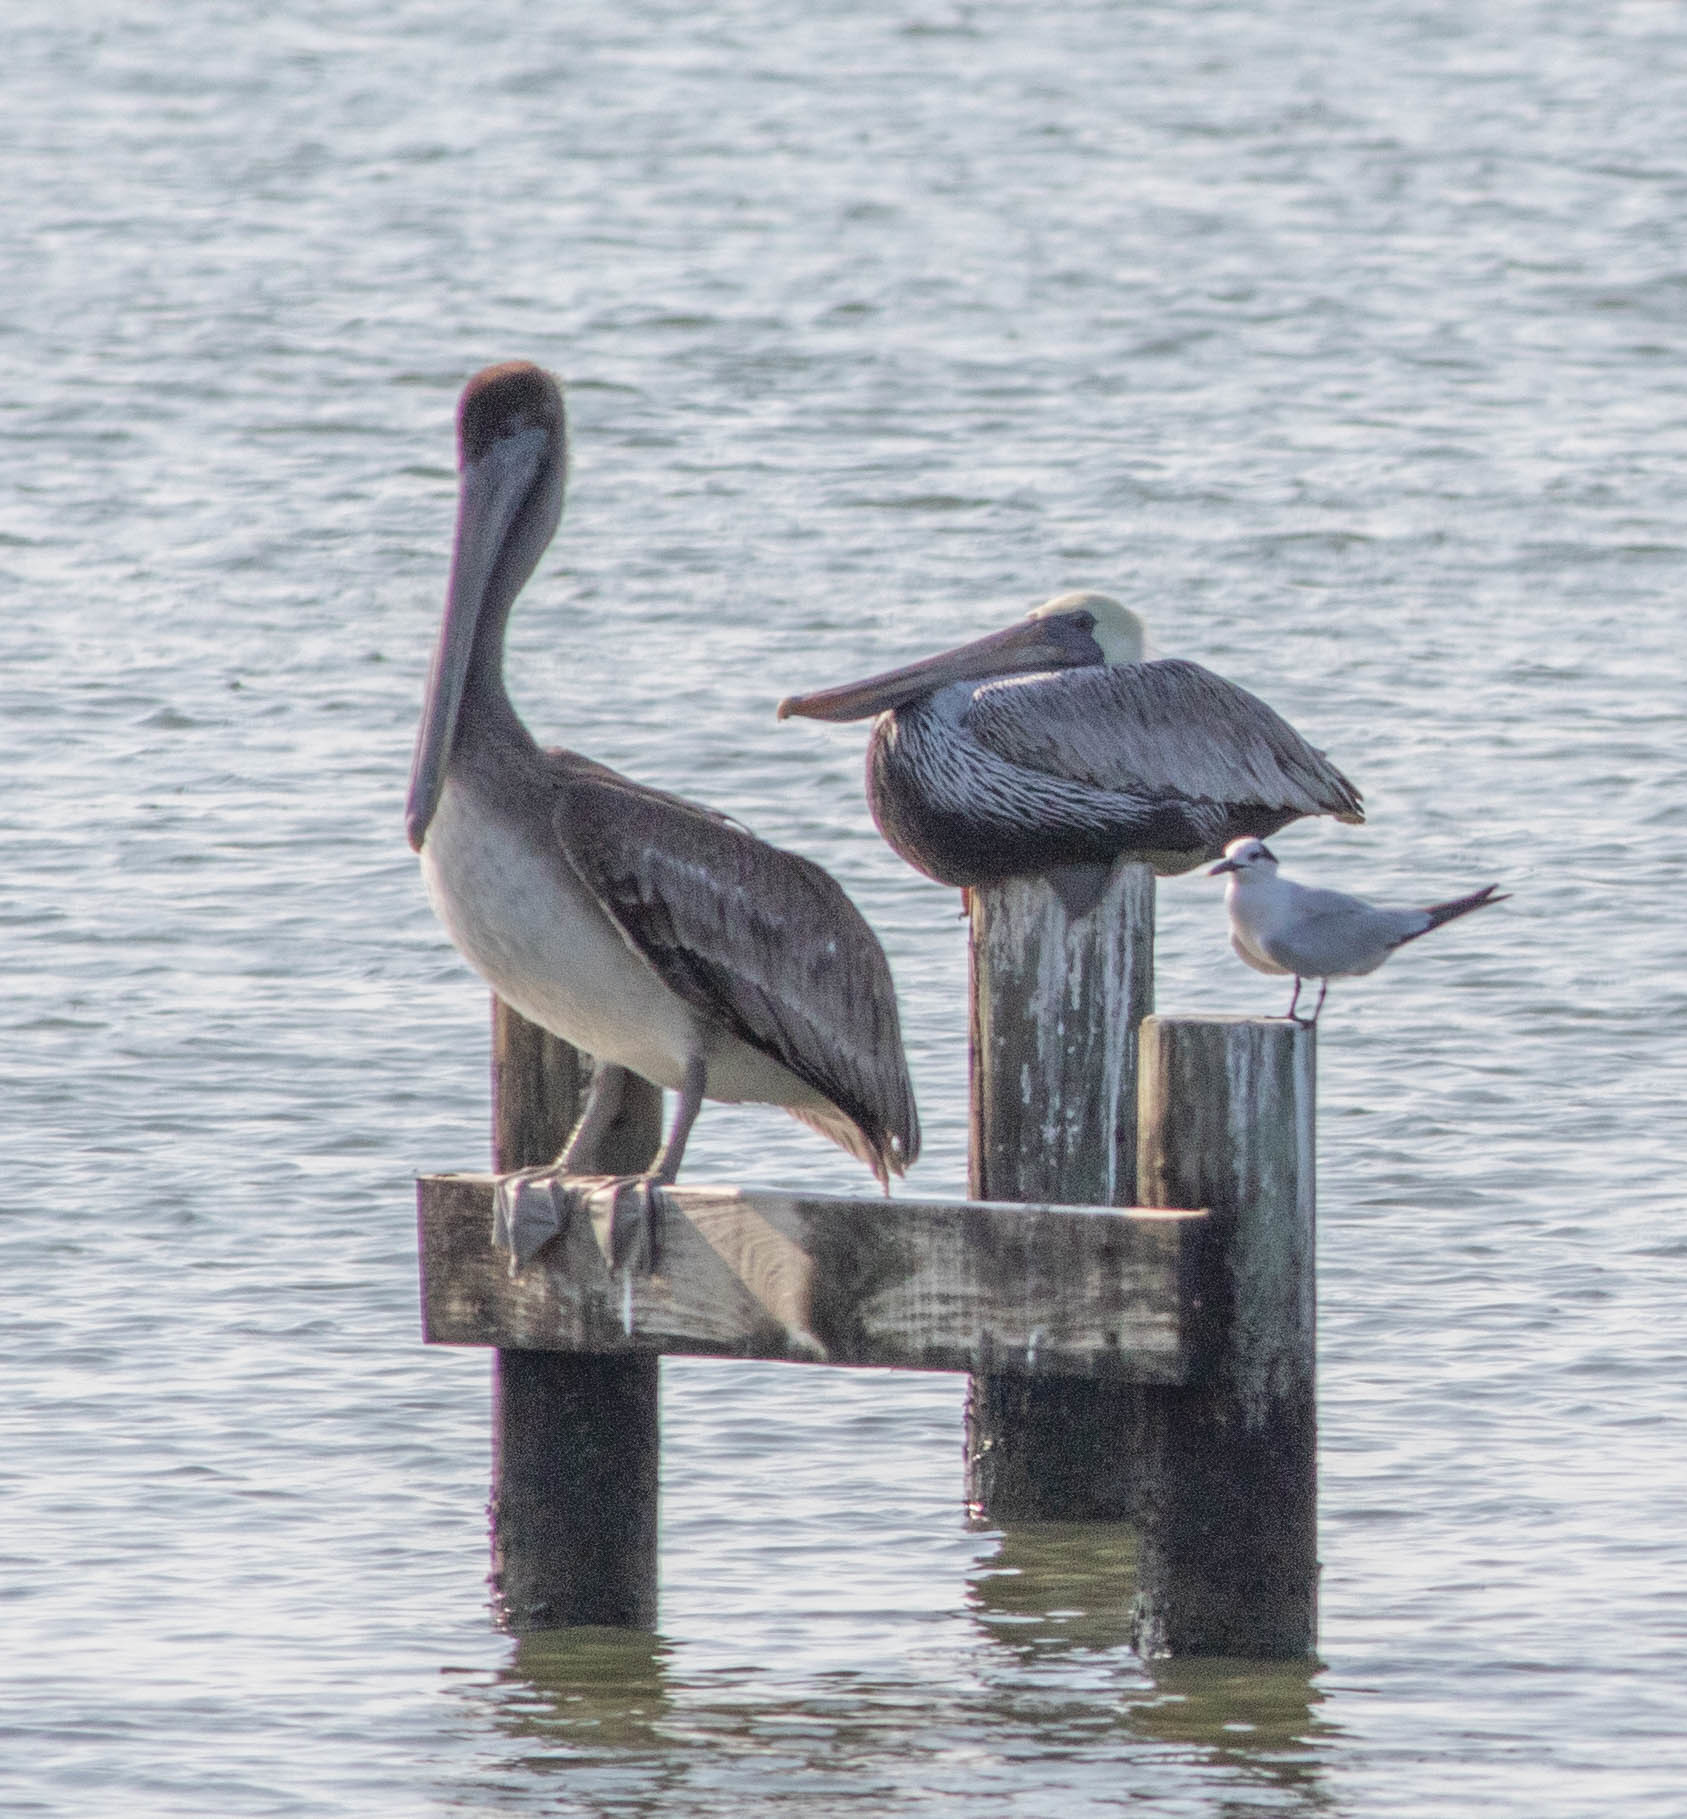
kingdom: Animalia
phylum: Chordata
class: Aves
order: Pelecaniformes
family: Pelecanidae
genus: Pelecanus
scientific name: Pelecanus occidentalis
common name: Brown pelican
